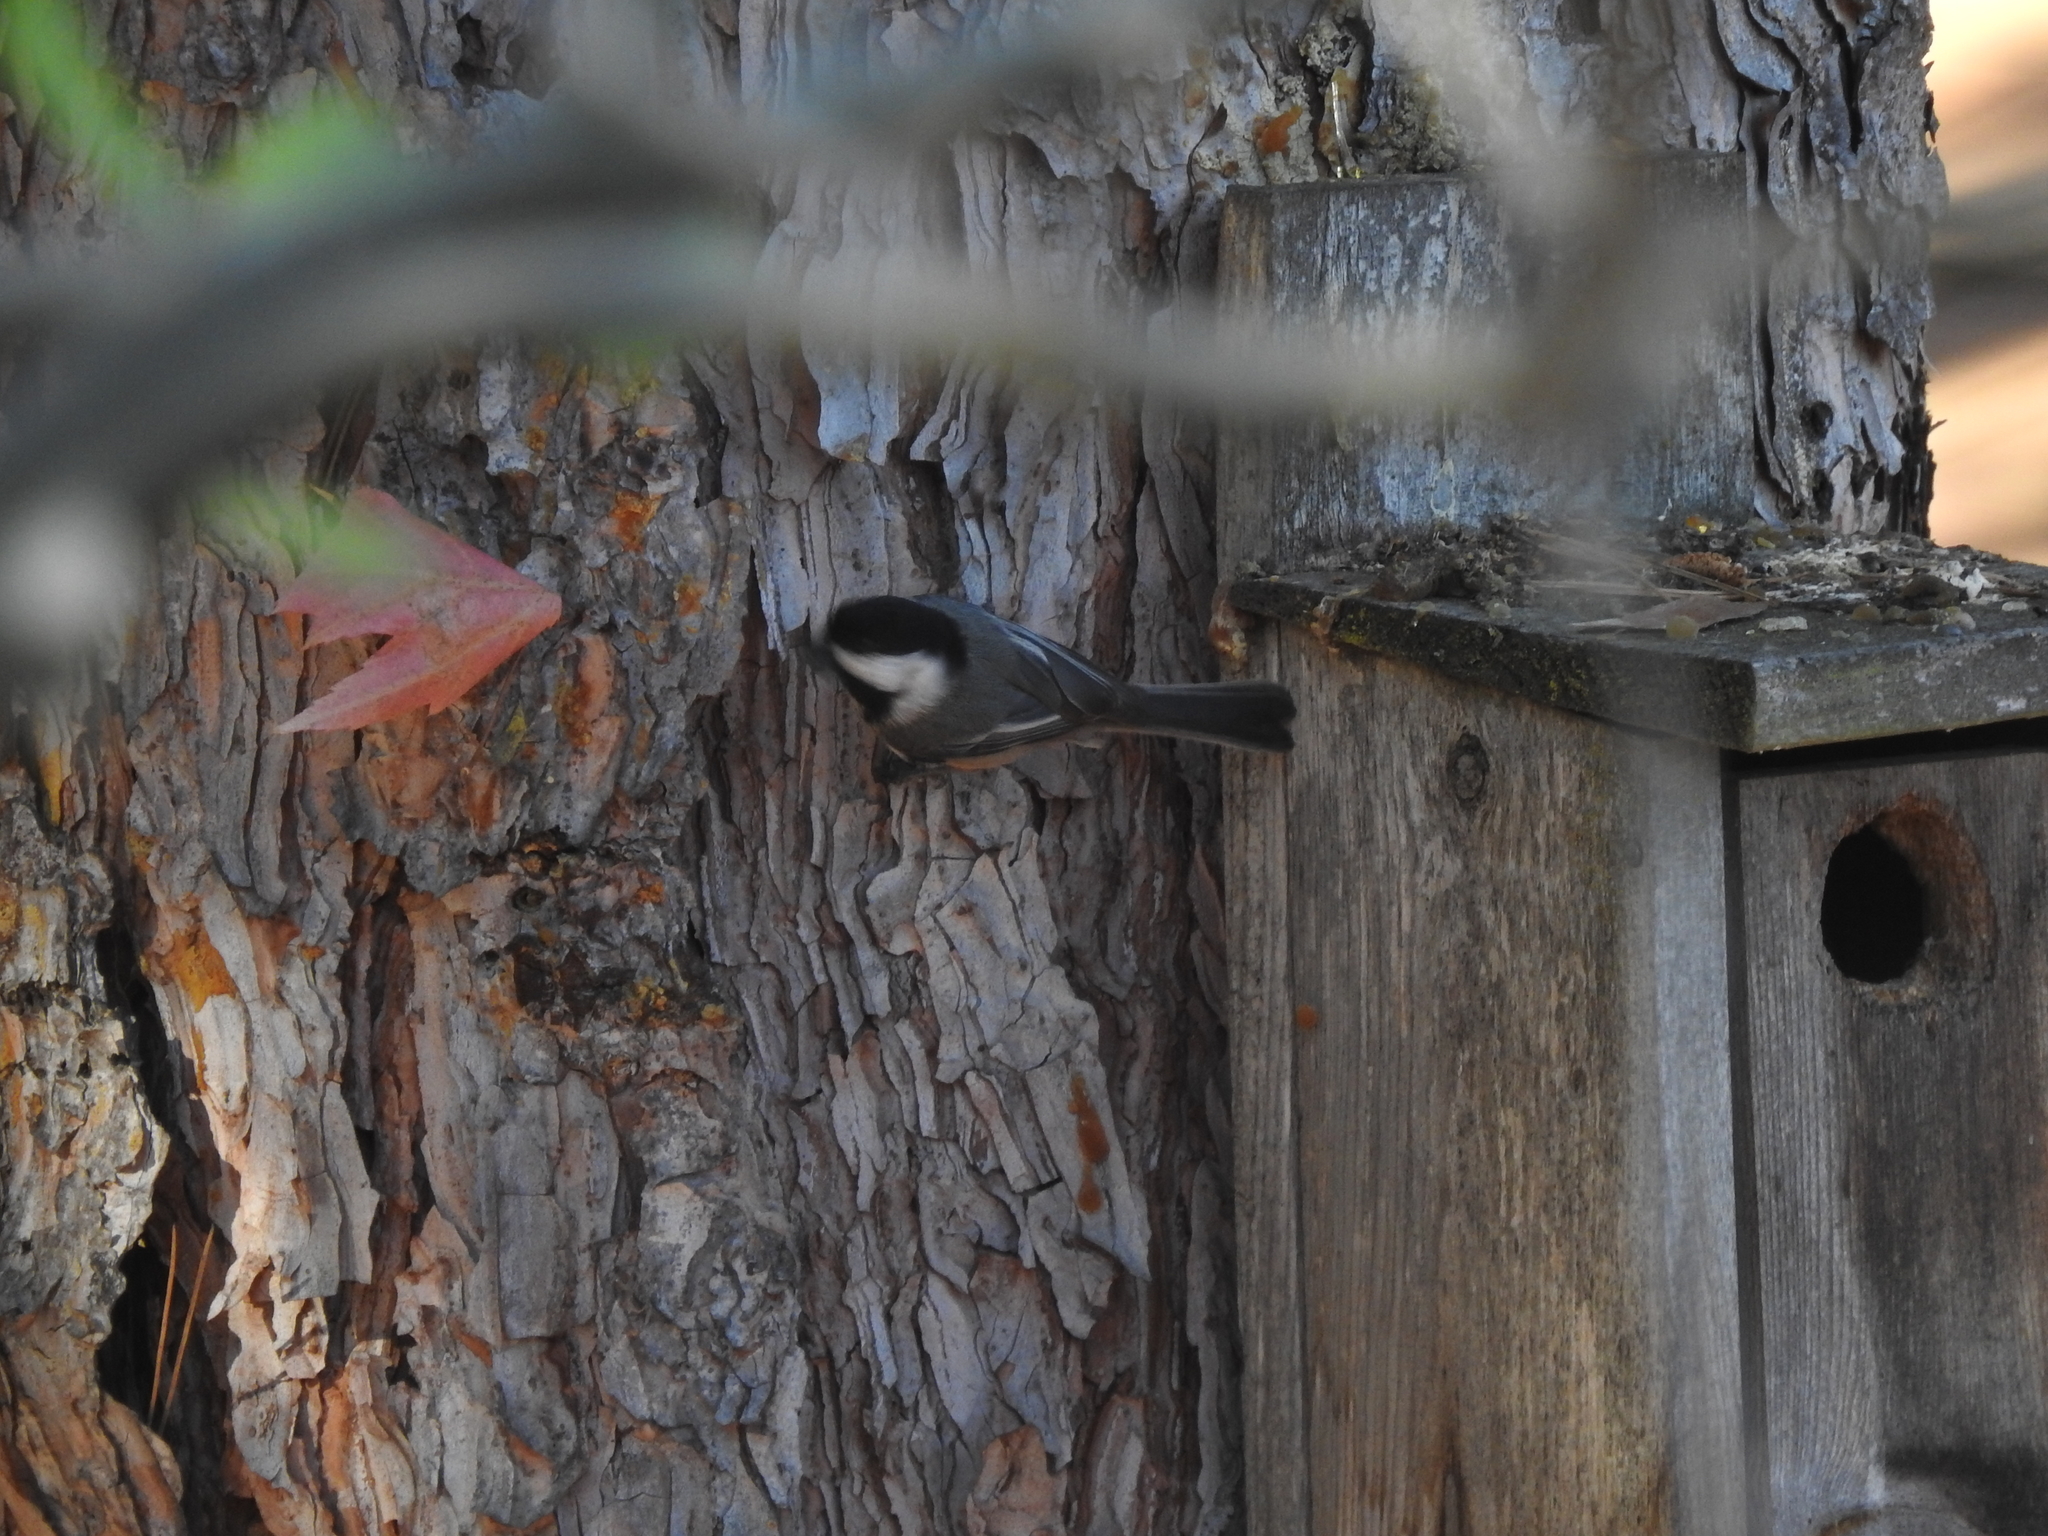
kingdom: Animalia
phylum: Chordata
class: Aves
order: Passeriformes
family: Paridae
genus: Poecile
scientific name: Poecile atricapillus
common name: Black-capped chickadee
